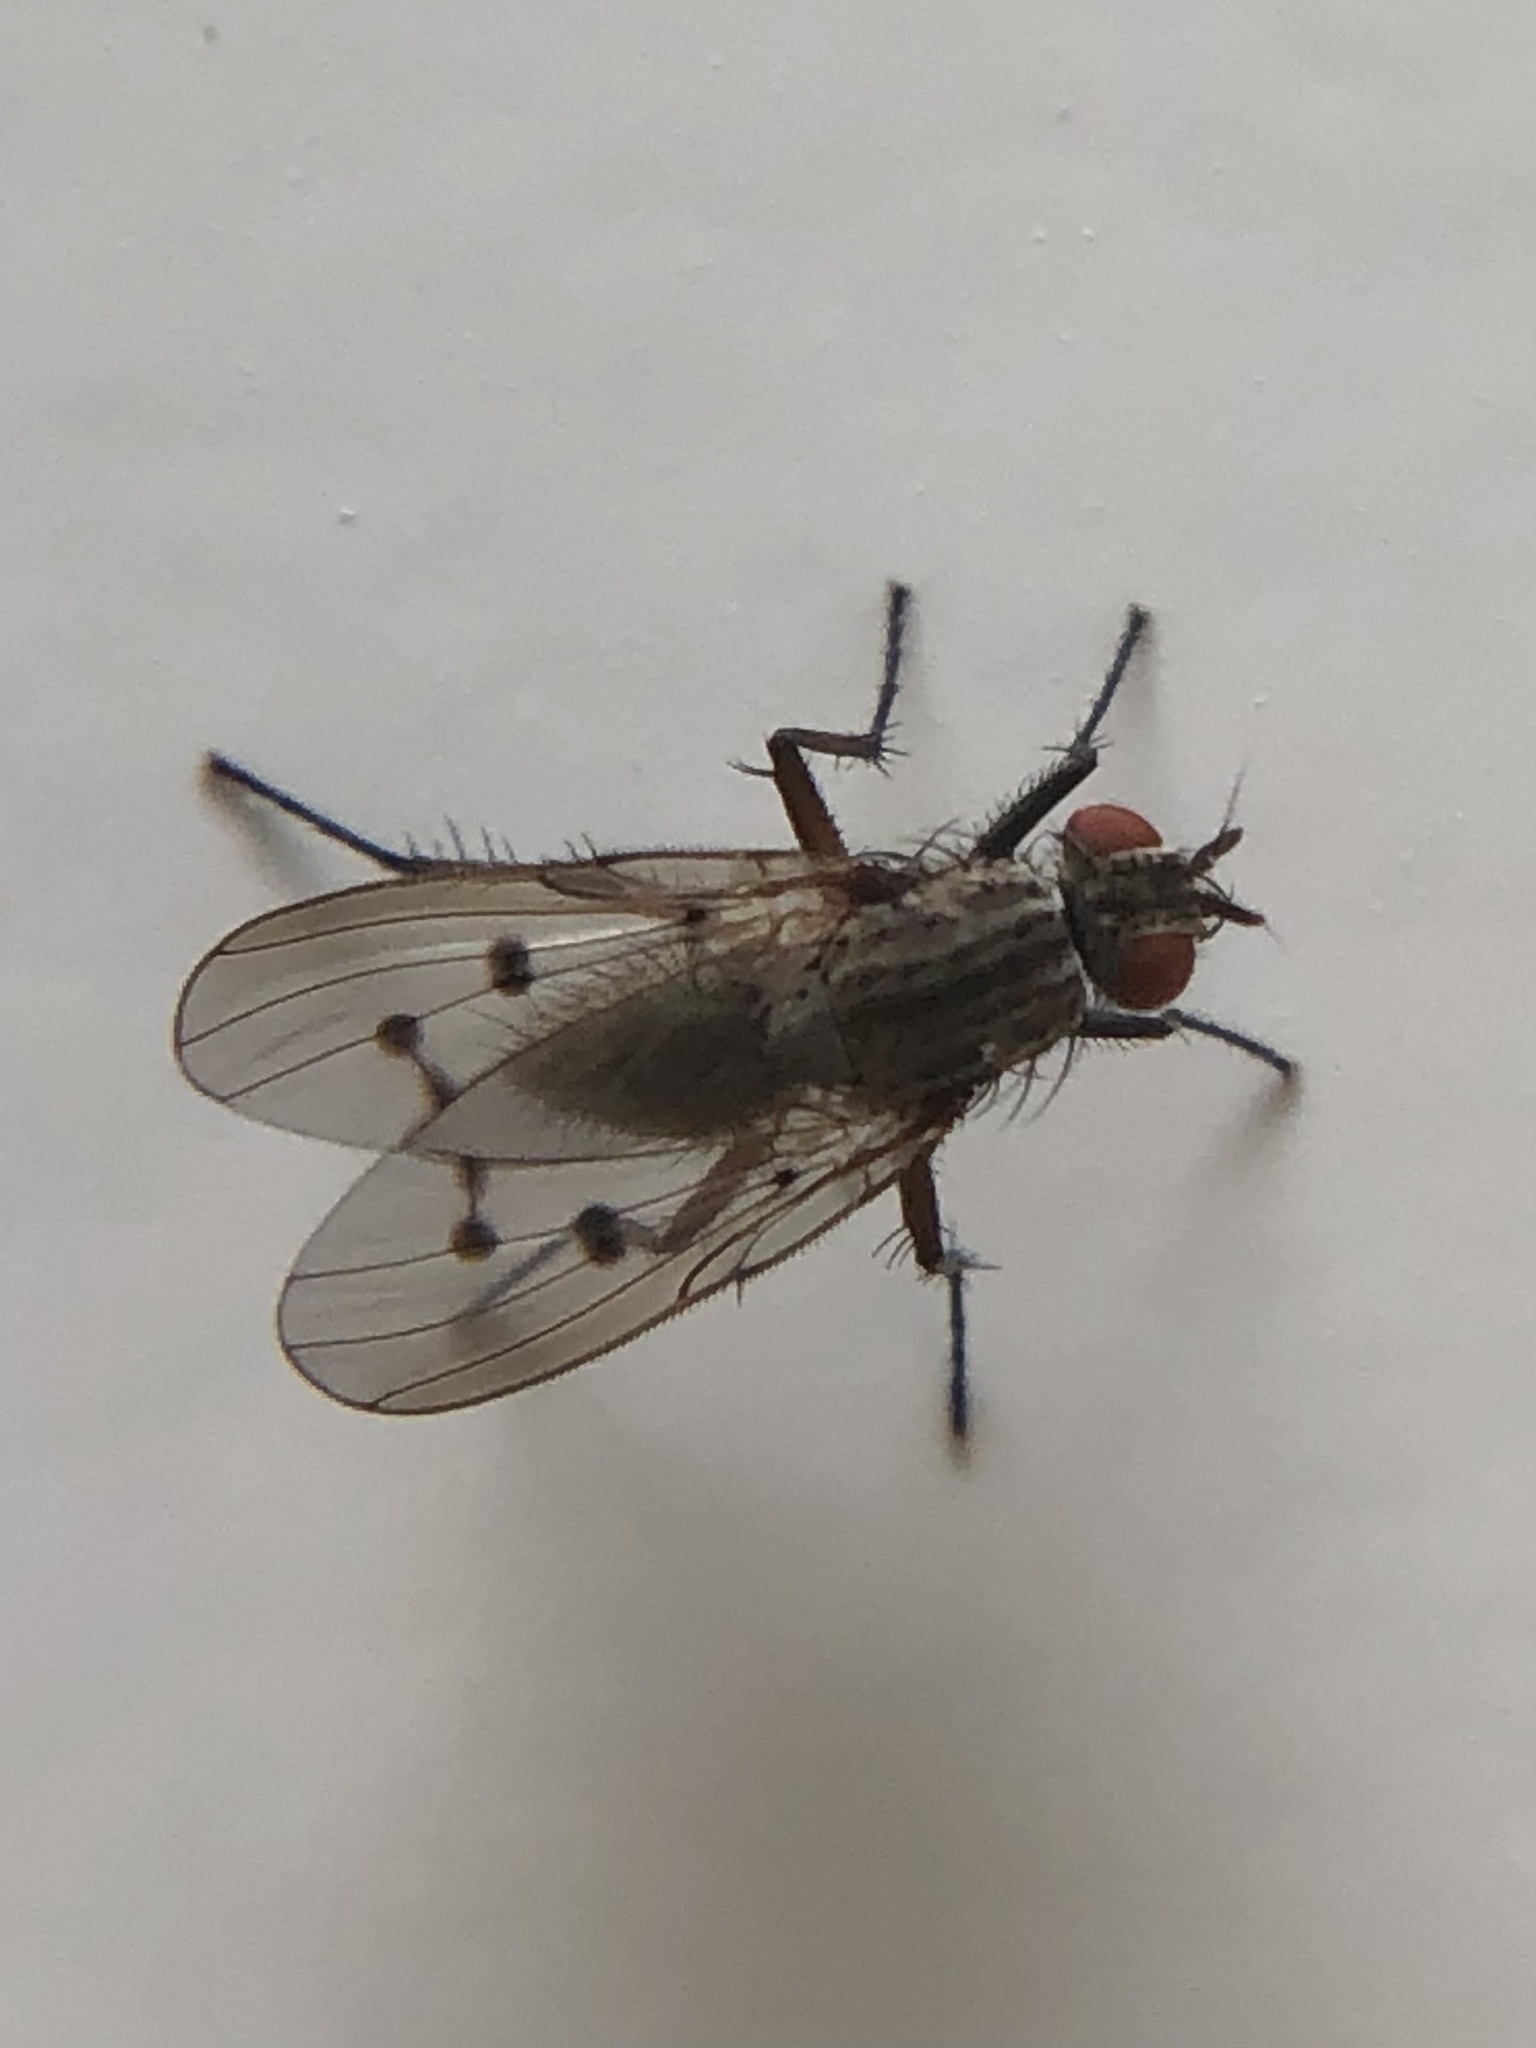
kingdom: Animalia
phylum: Arthropoda
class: Insecta
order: Diptera
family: Anthomyiidae
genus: Anthomyia
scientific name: Anthomyia ochripes
